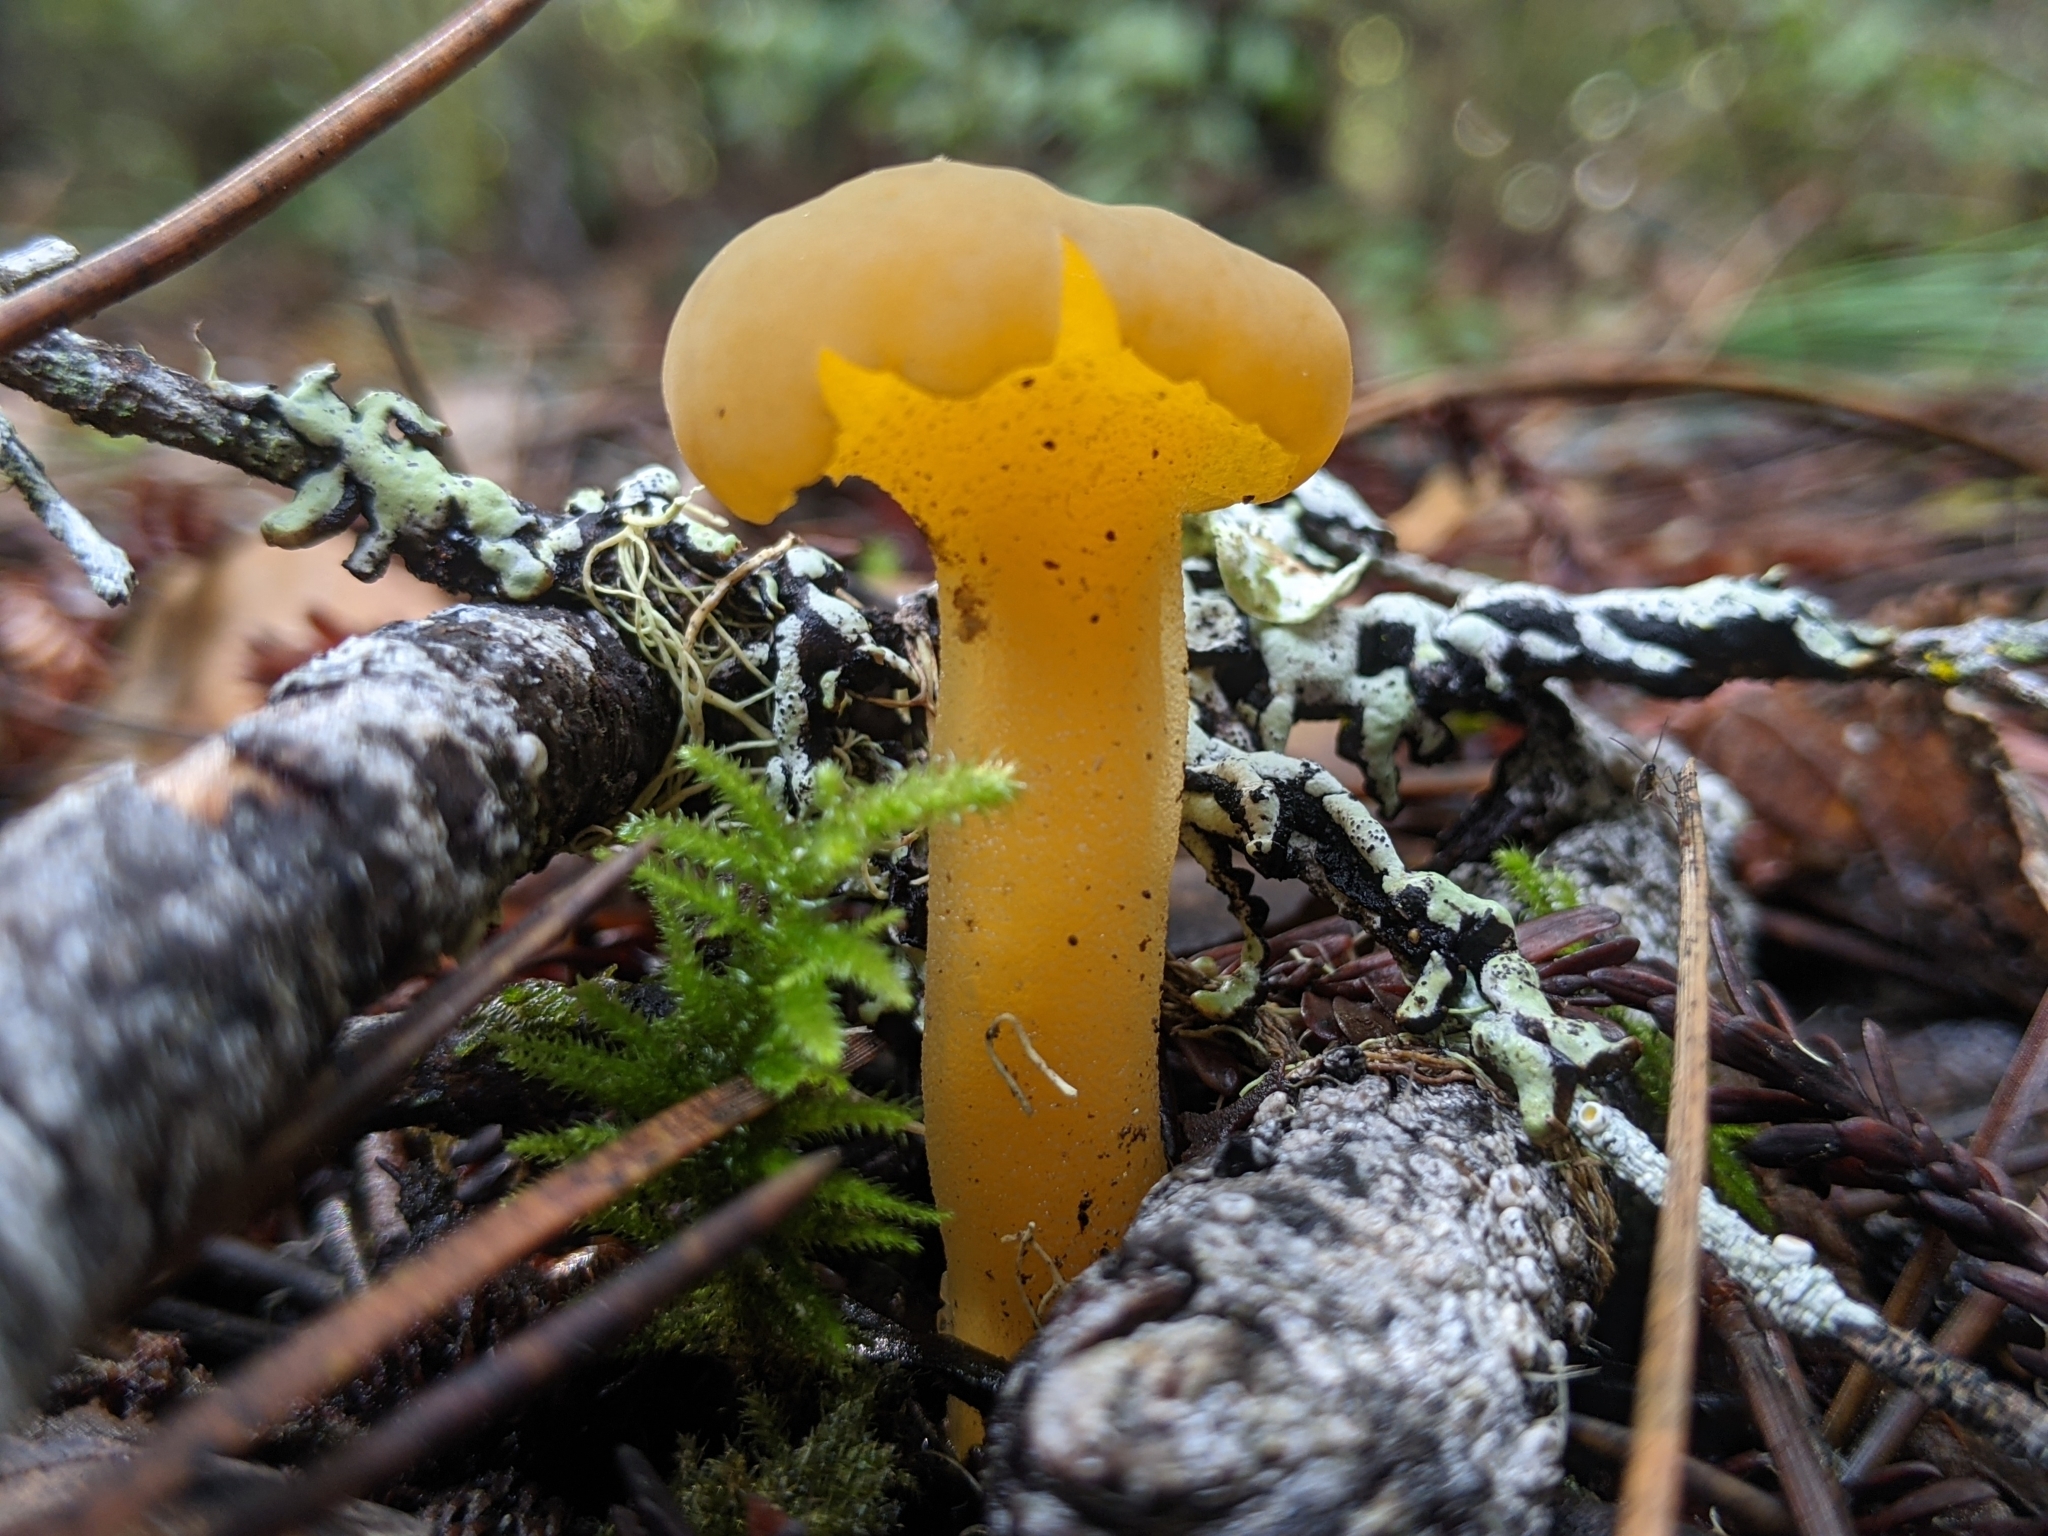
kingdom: Fungi
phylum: Ascomycota
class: Leotiomycetes
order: Leotiales
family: Leotiaceae
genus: Leotia
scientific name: Leotia lubrica
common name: Jellybaby
